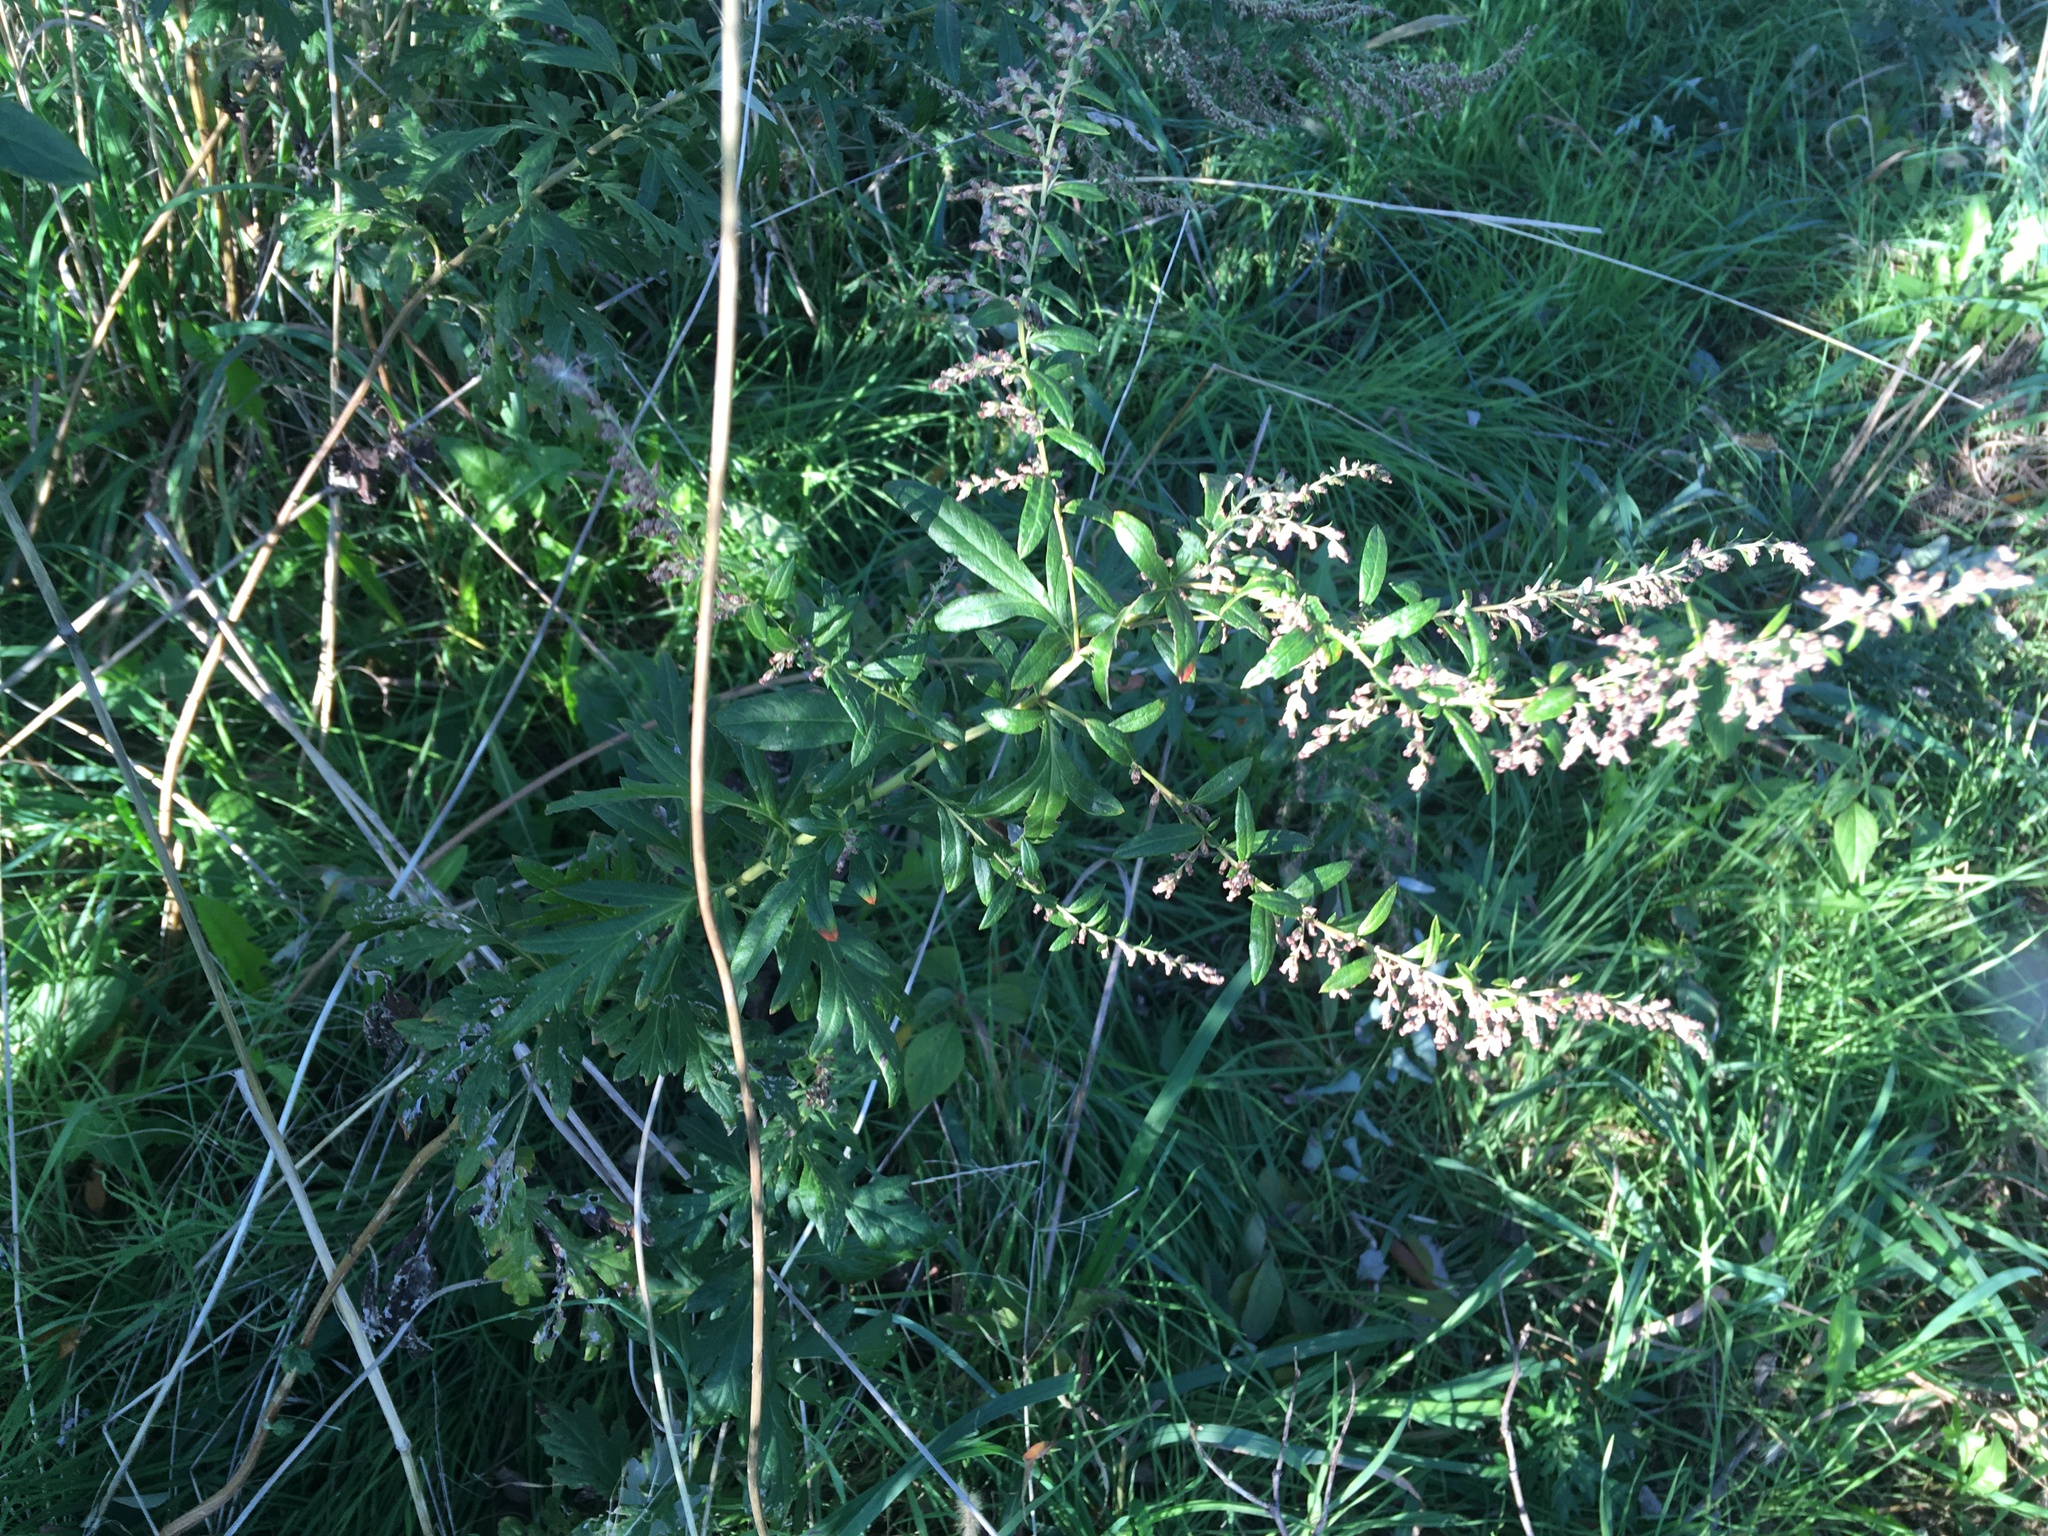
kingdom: Plantae
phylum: Tracheophyta
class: Magnoliopsida
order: Asterales
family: Asteraceae
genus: Artemisia
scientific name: Artemisia vulgaris
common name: Mugwort
